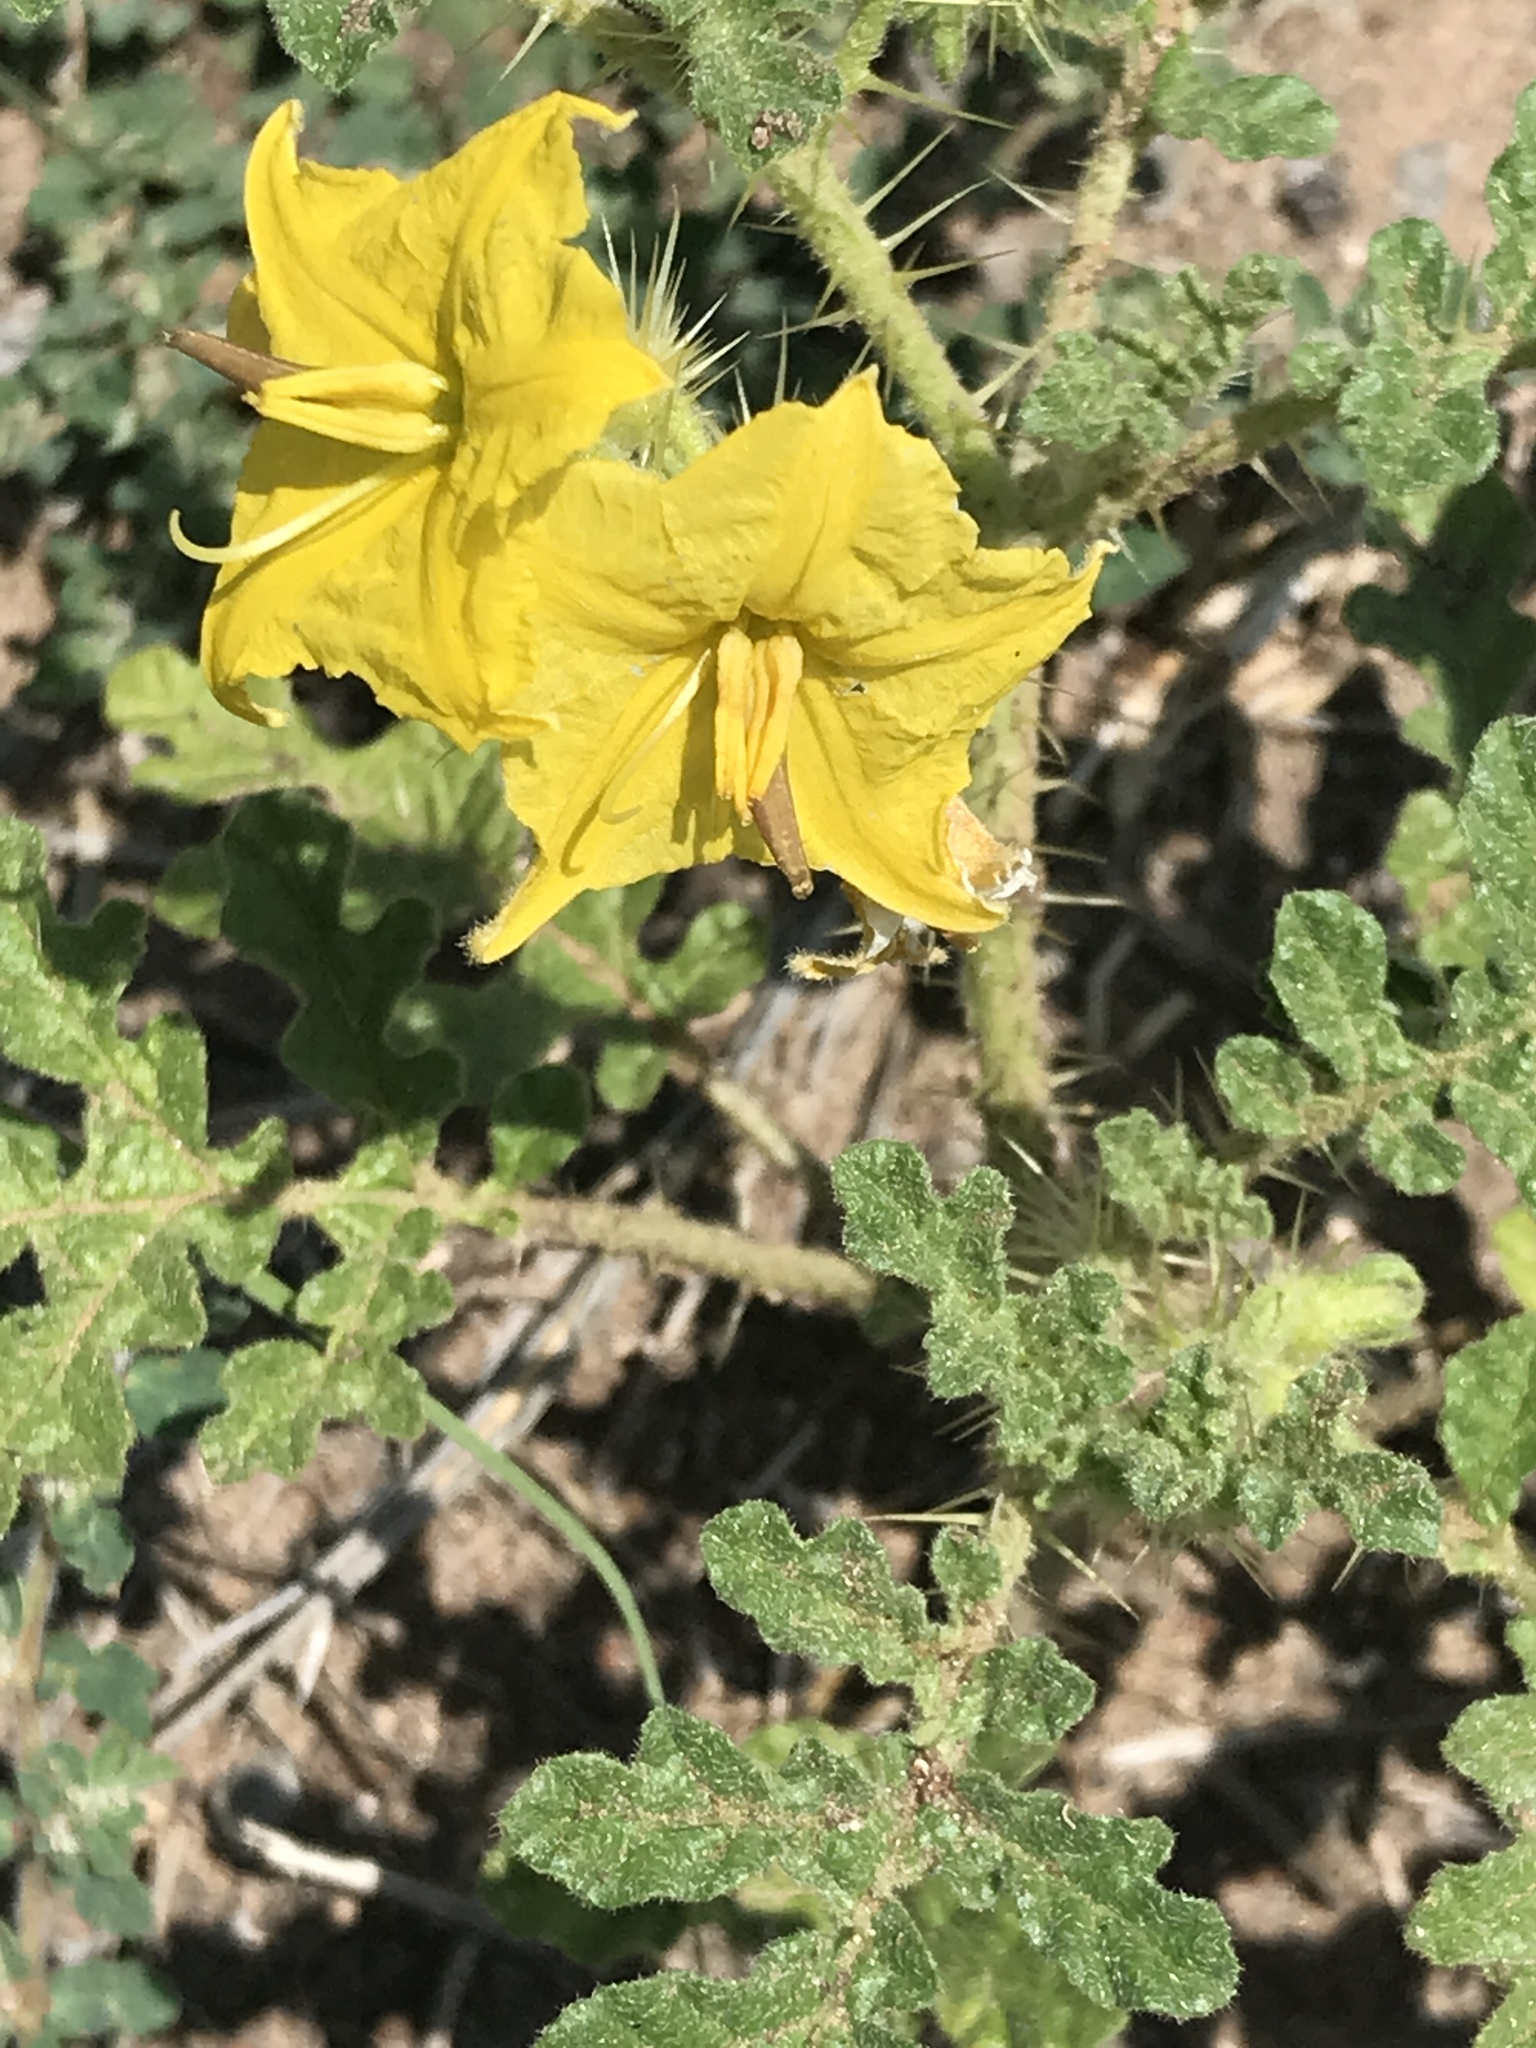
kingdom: Plantae
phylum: Tracheophyta
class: Magnoliopsida
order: Solanales
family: Solanaceae
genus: Solanum
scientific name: Solanum angustifolium
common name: Buffalobur nightshade
